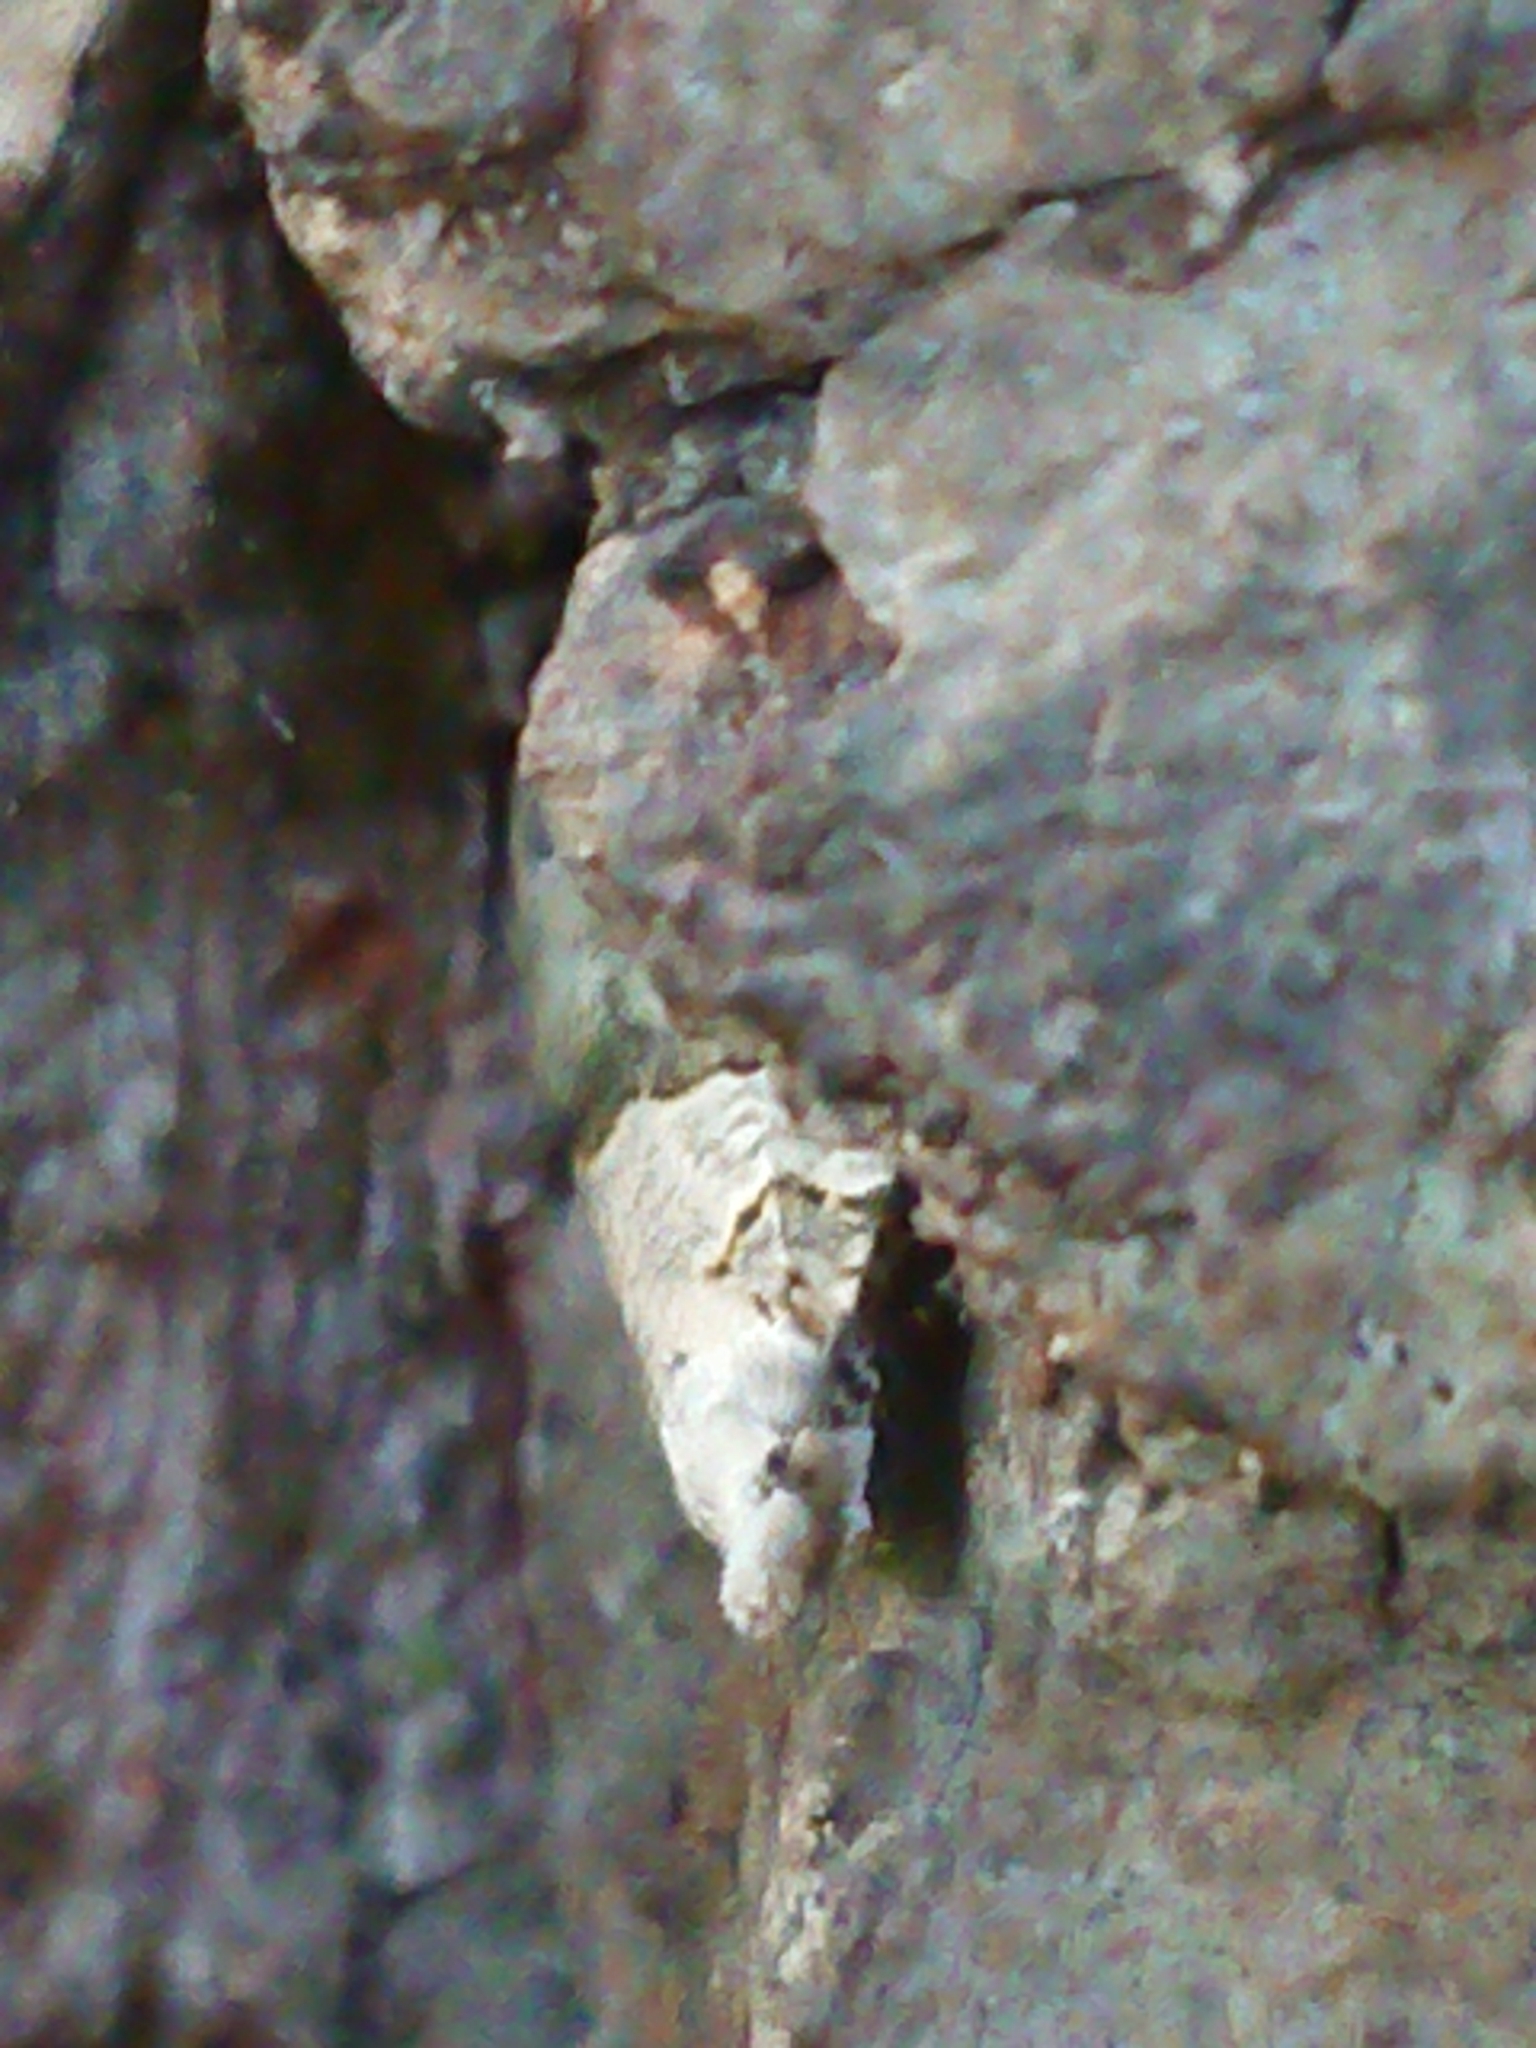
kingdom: Animalia
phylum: Arthropoda
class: Insecta
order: Lepidoptera
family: Tortricidae
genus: Harmologa
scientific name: Harmologa amplexana
